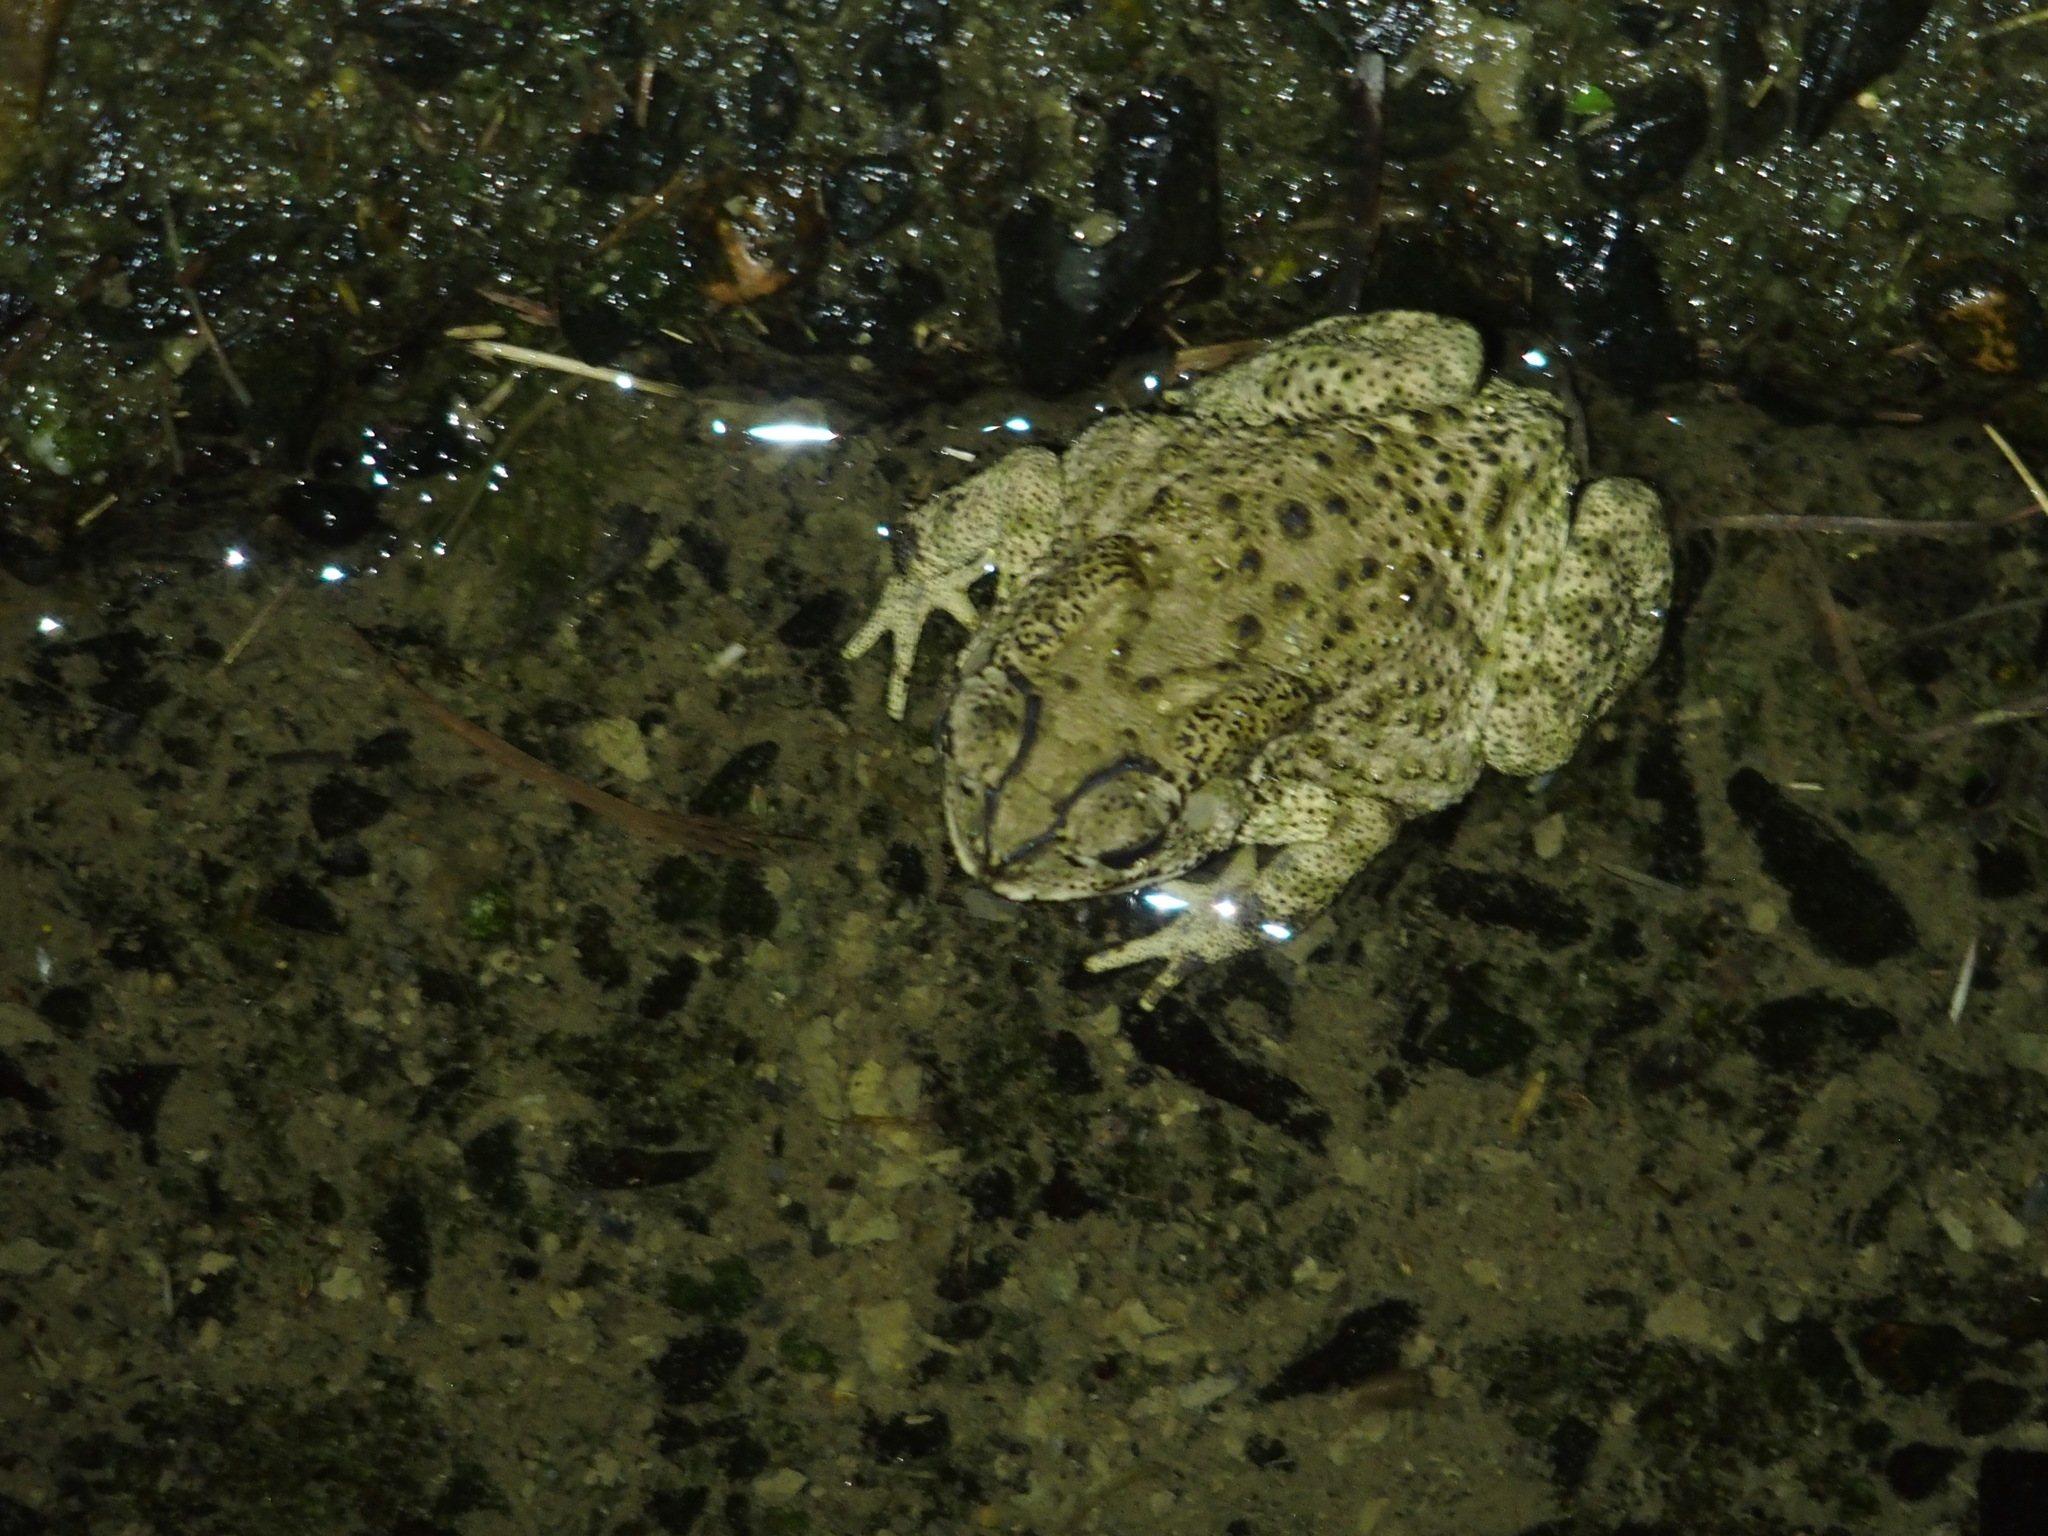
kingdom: Animalia
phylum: Chordata
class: Amphibia
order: Anura
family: Bufonidae
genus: Duttaphrynus
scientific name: Duttaphrynus melanostictus
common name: Common sunda toad
